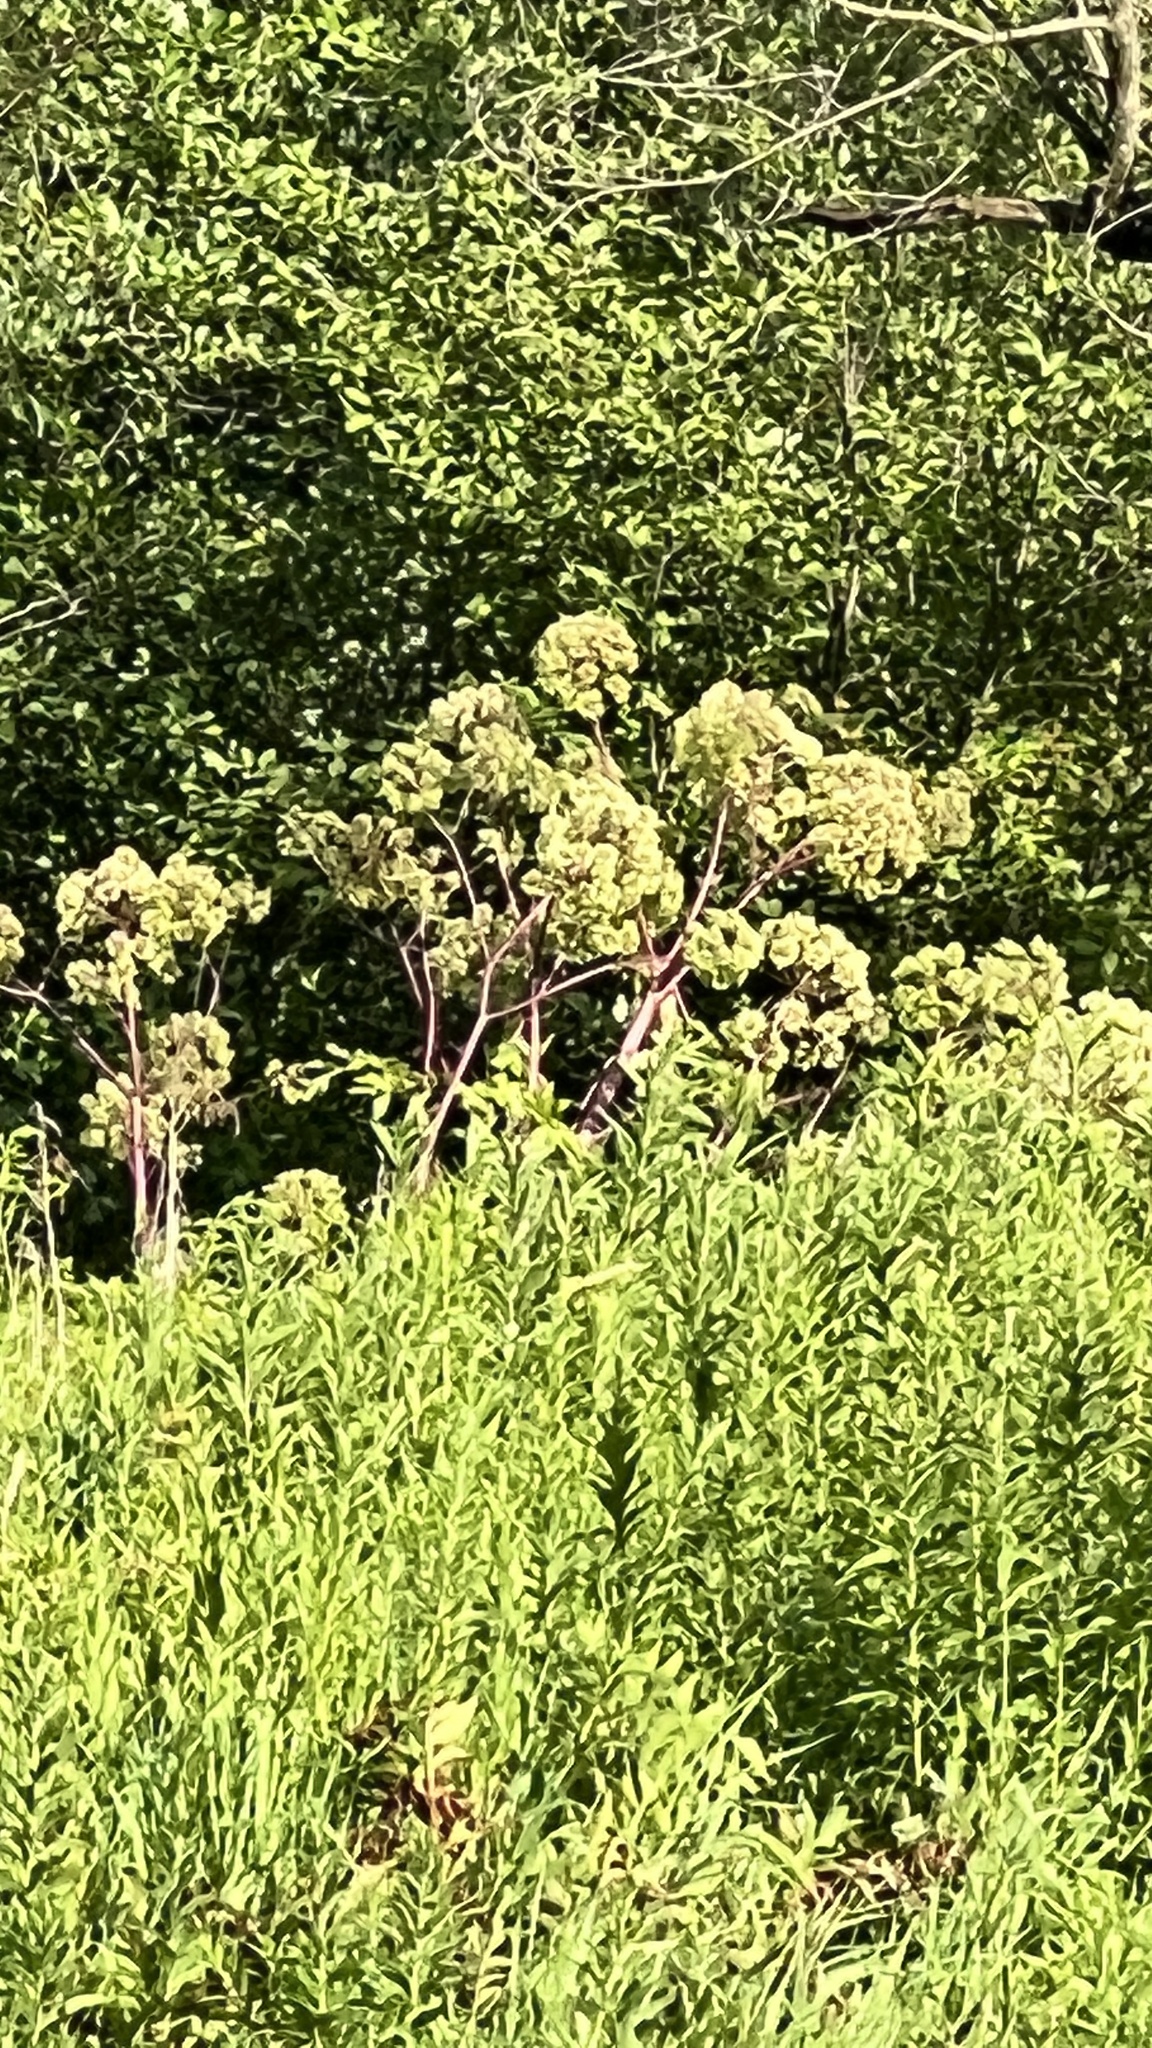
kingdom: Plantae
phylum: Tracheophyta
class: Magnoliopsida
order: Apiales
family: Apiaceae
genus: Angelica
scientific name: Angelica atropurpurea
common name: Great angelica
